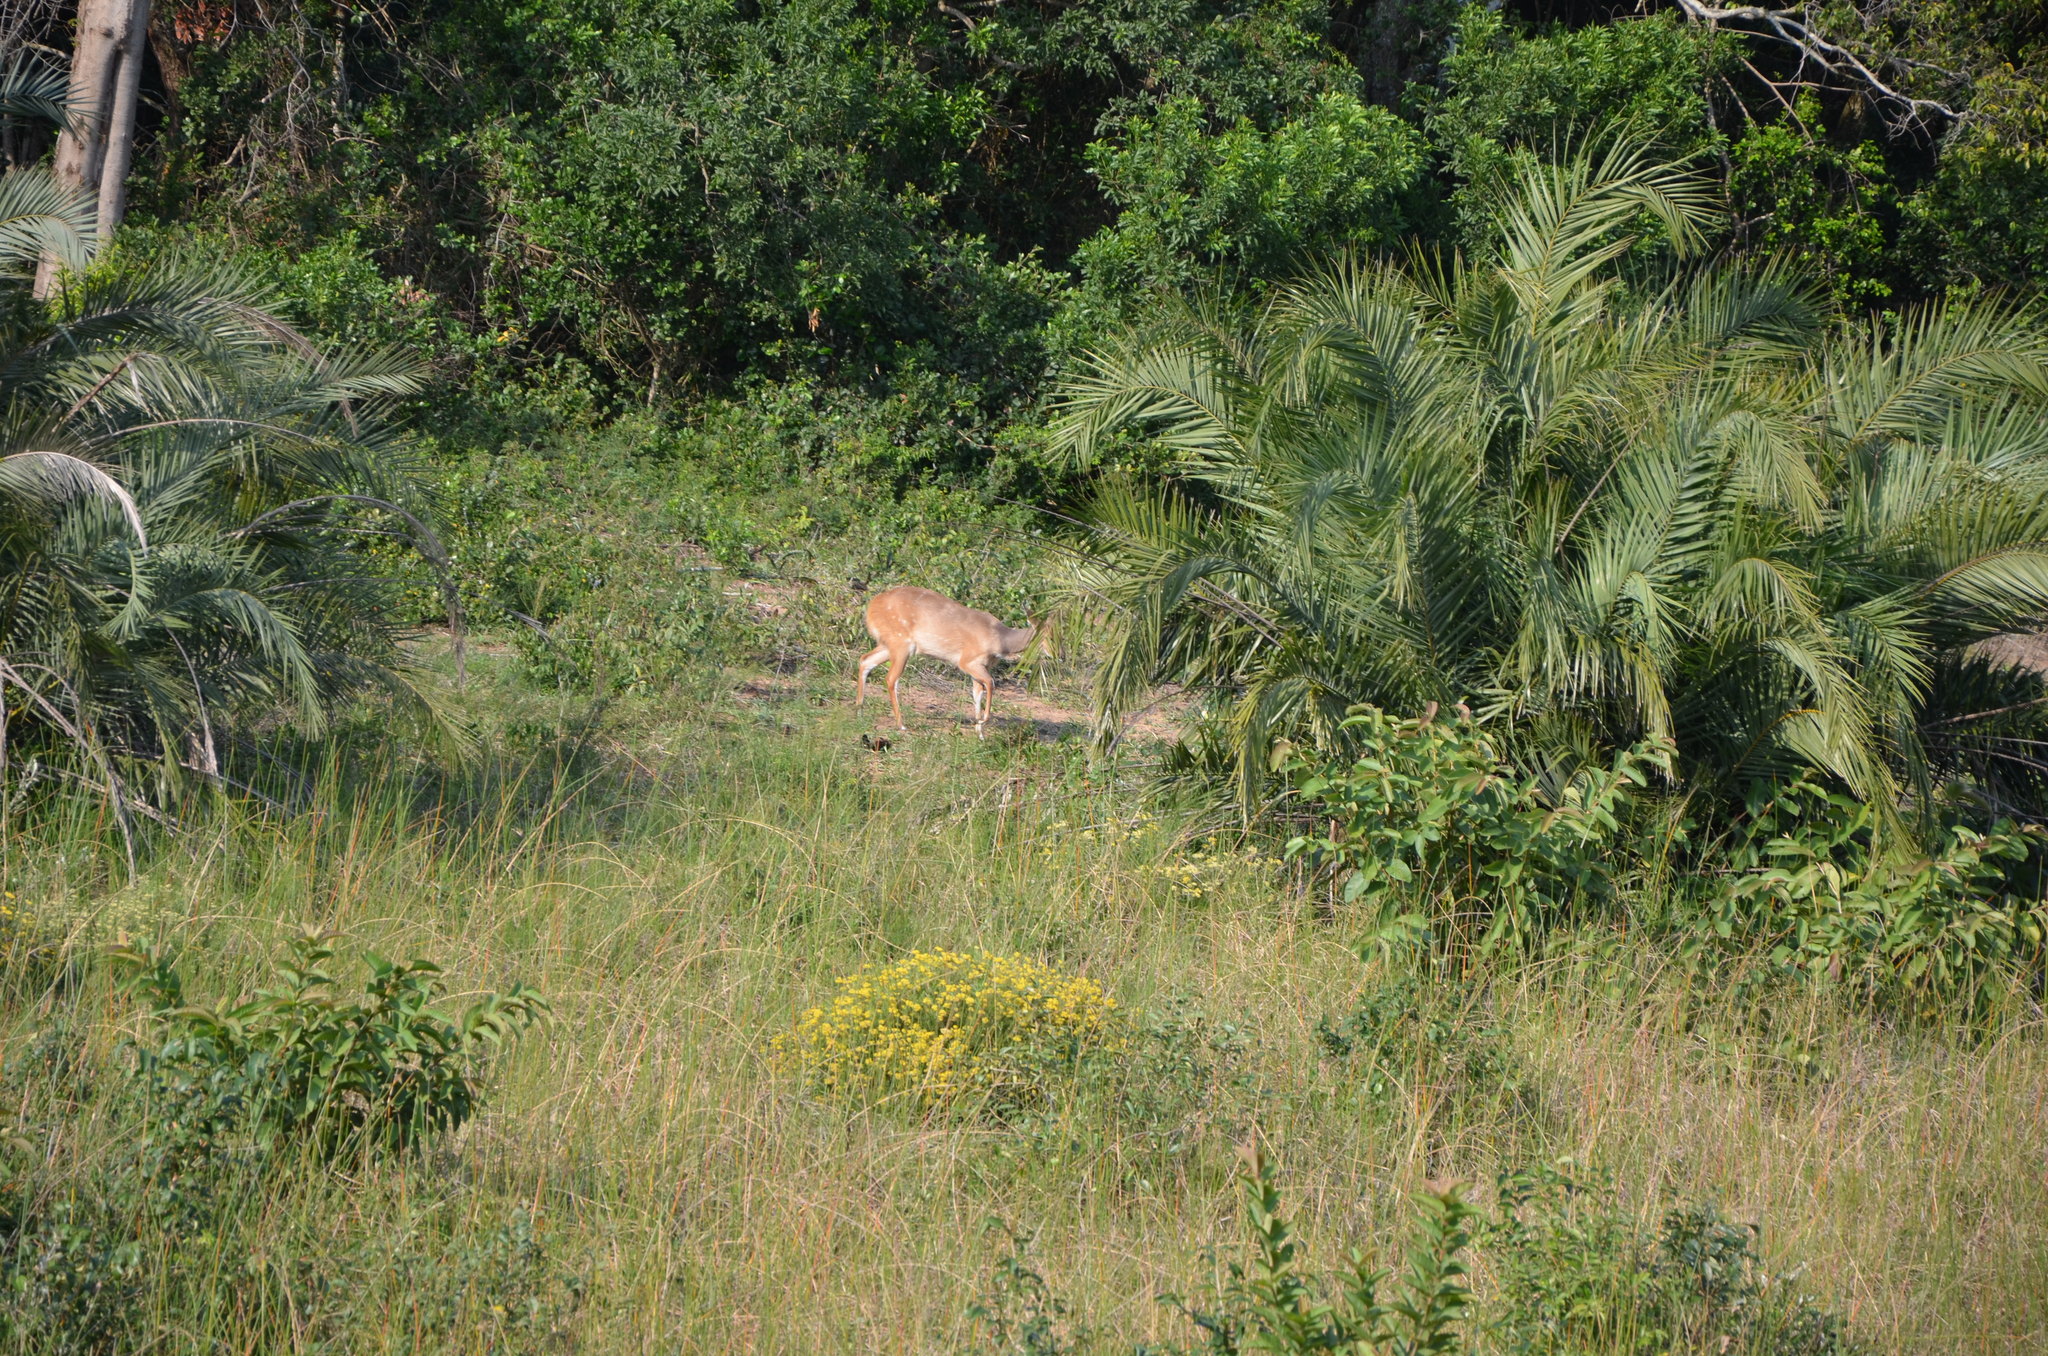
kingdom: Animalia
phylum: Chordata
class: Mammalia
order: Artiodactyla
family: Bovidae
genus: Tragelaphus
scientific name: Tragelaphus scriptus
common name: Bushbuck
